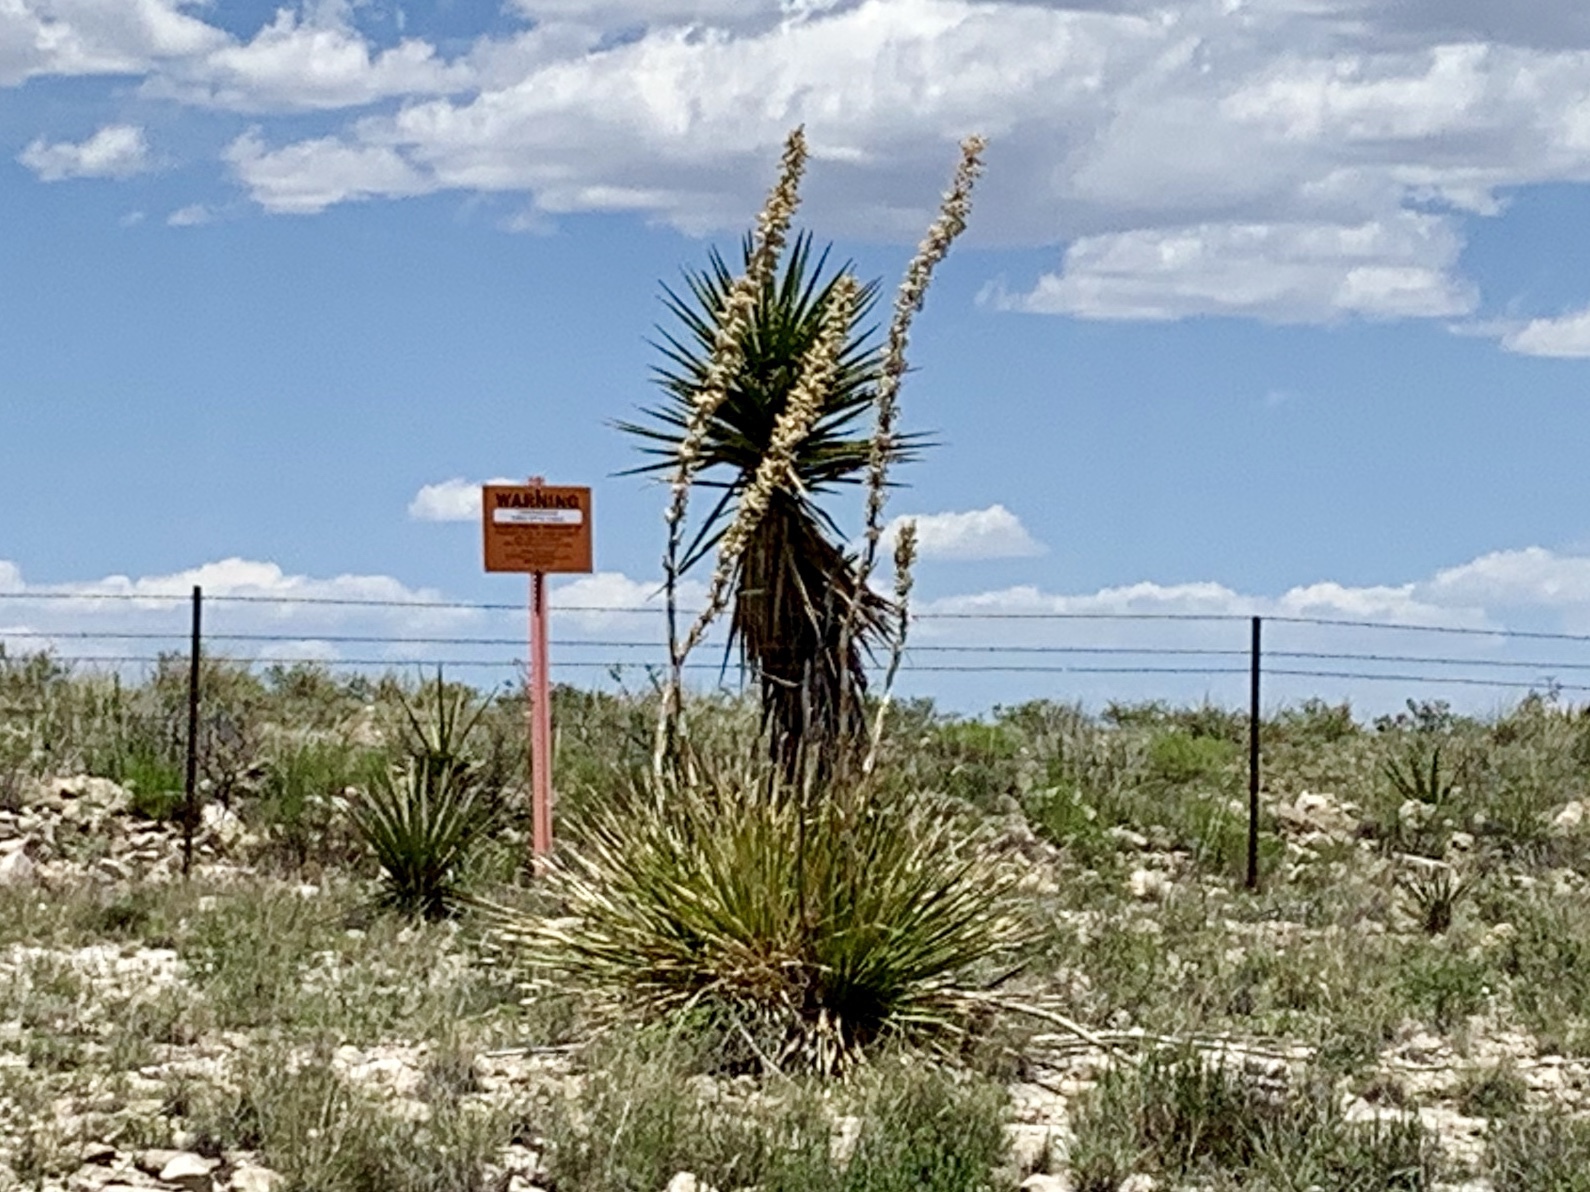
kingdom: Plantae
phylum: Tracheophyta
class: Liliopsida
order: Asparagales
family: Asparagaceae
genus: Dasylirion
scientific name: Dasylirion wheeleri
